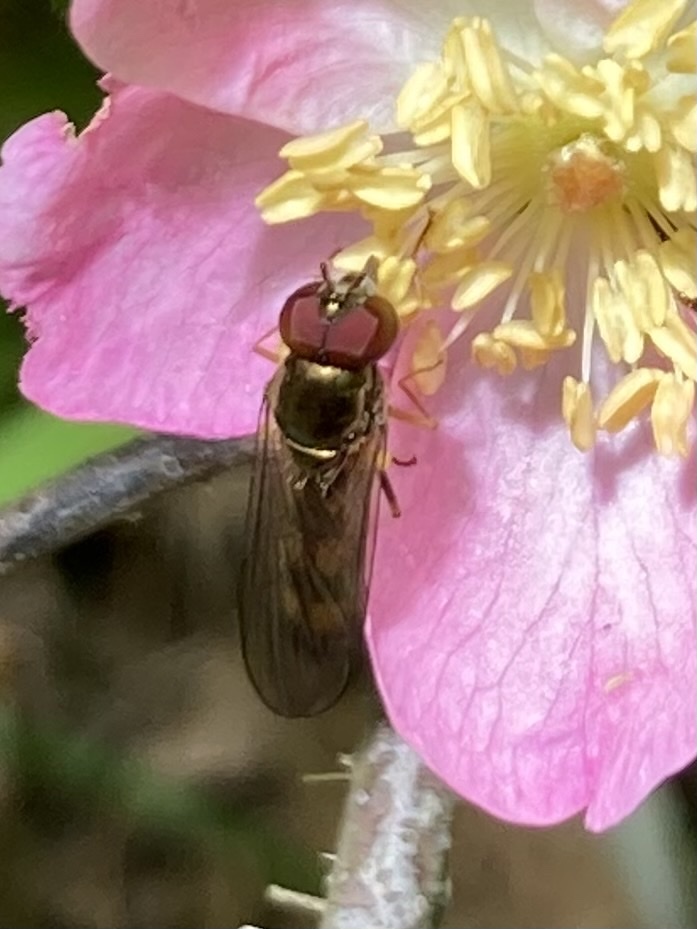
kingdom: Animalia
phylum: Arthropoda
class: Insecta
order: Diptera
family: Syrphidae
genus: Melanostoma
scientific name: Melanostoma mellina
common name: Hover fly
